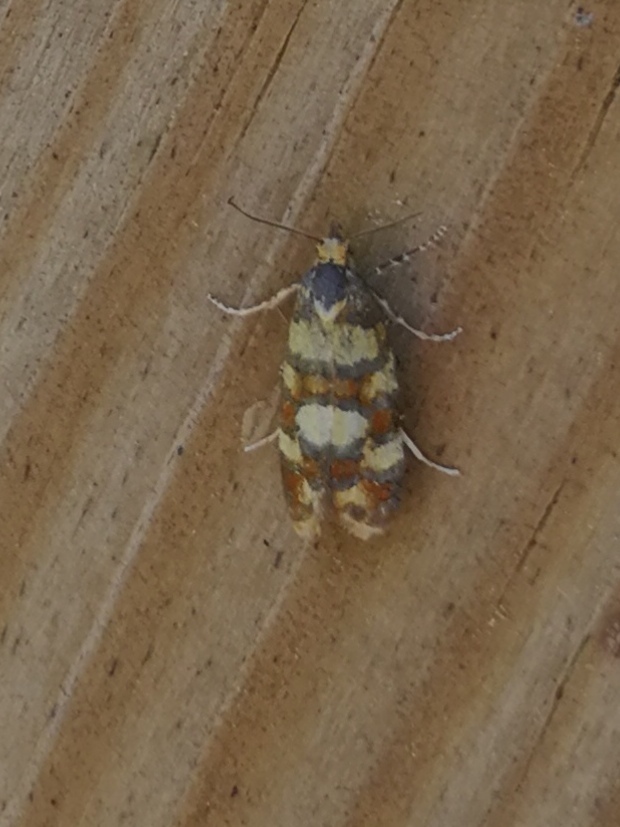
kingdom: Animalia
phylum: Arthropoda
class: Insecta
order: Lepidoptera
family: Tortricidae
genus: Aethes
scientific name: Aethes tesserana
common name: Downland conch
